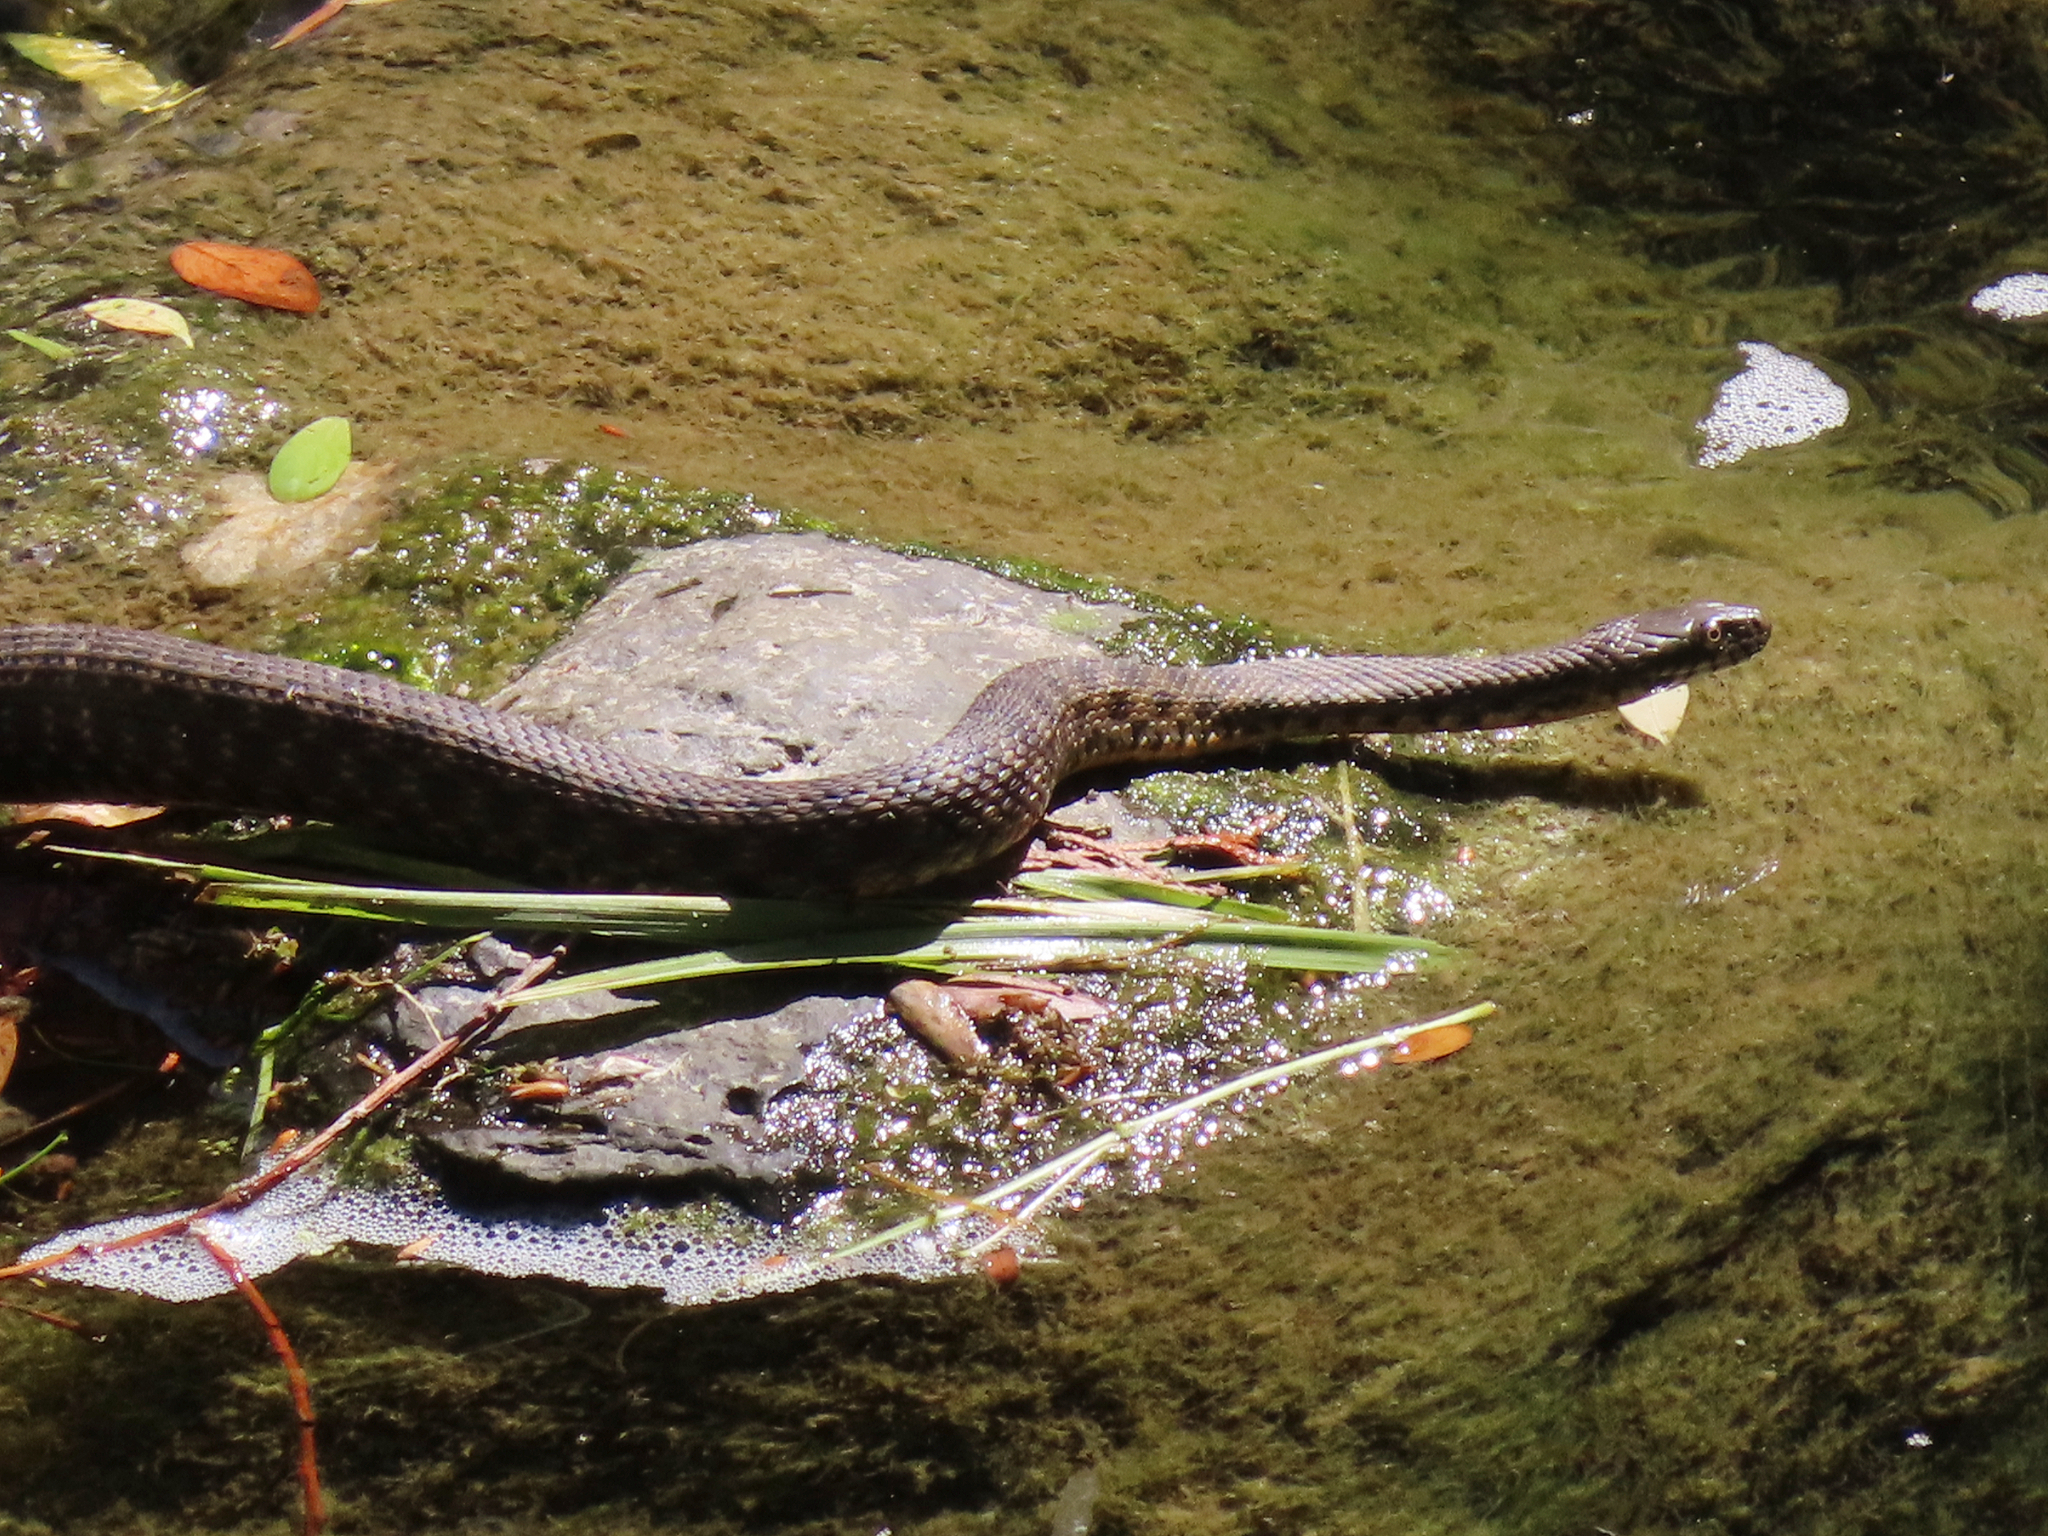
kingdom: Animalia
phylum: Chordata
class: Squamata
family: Colubridae
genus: Natrix
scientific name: Natrix tessellata
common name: Dice snake
